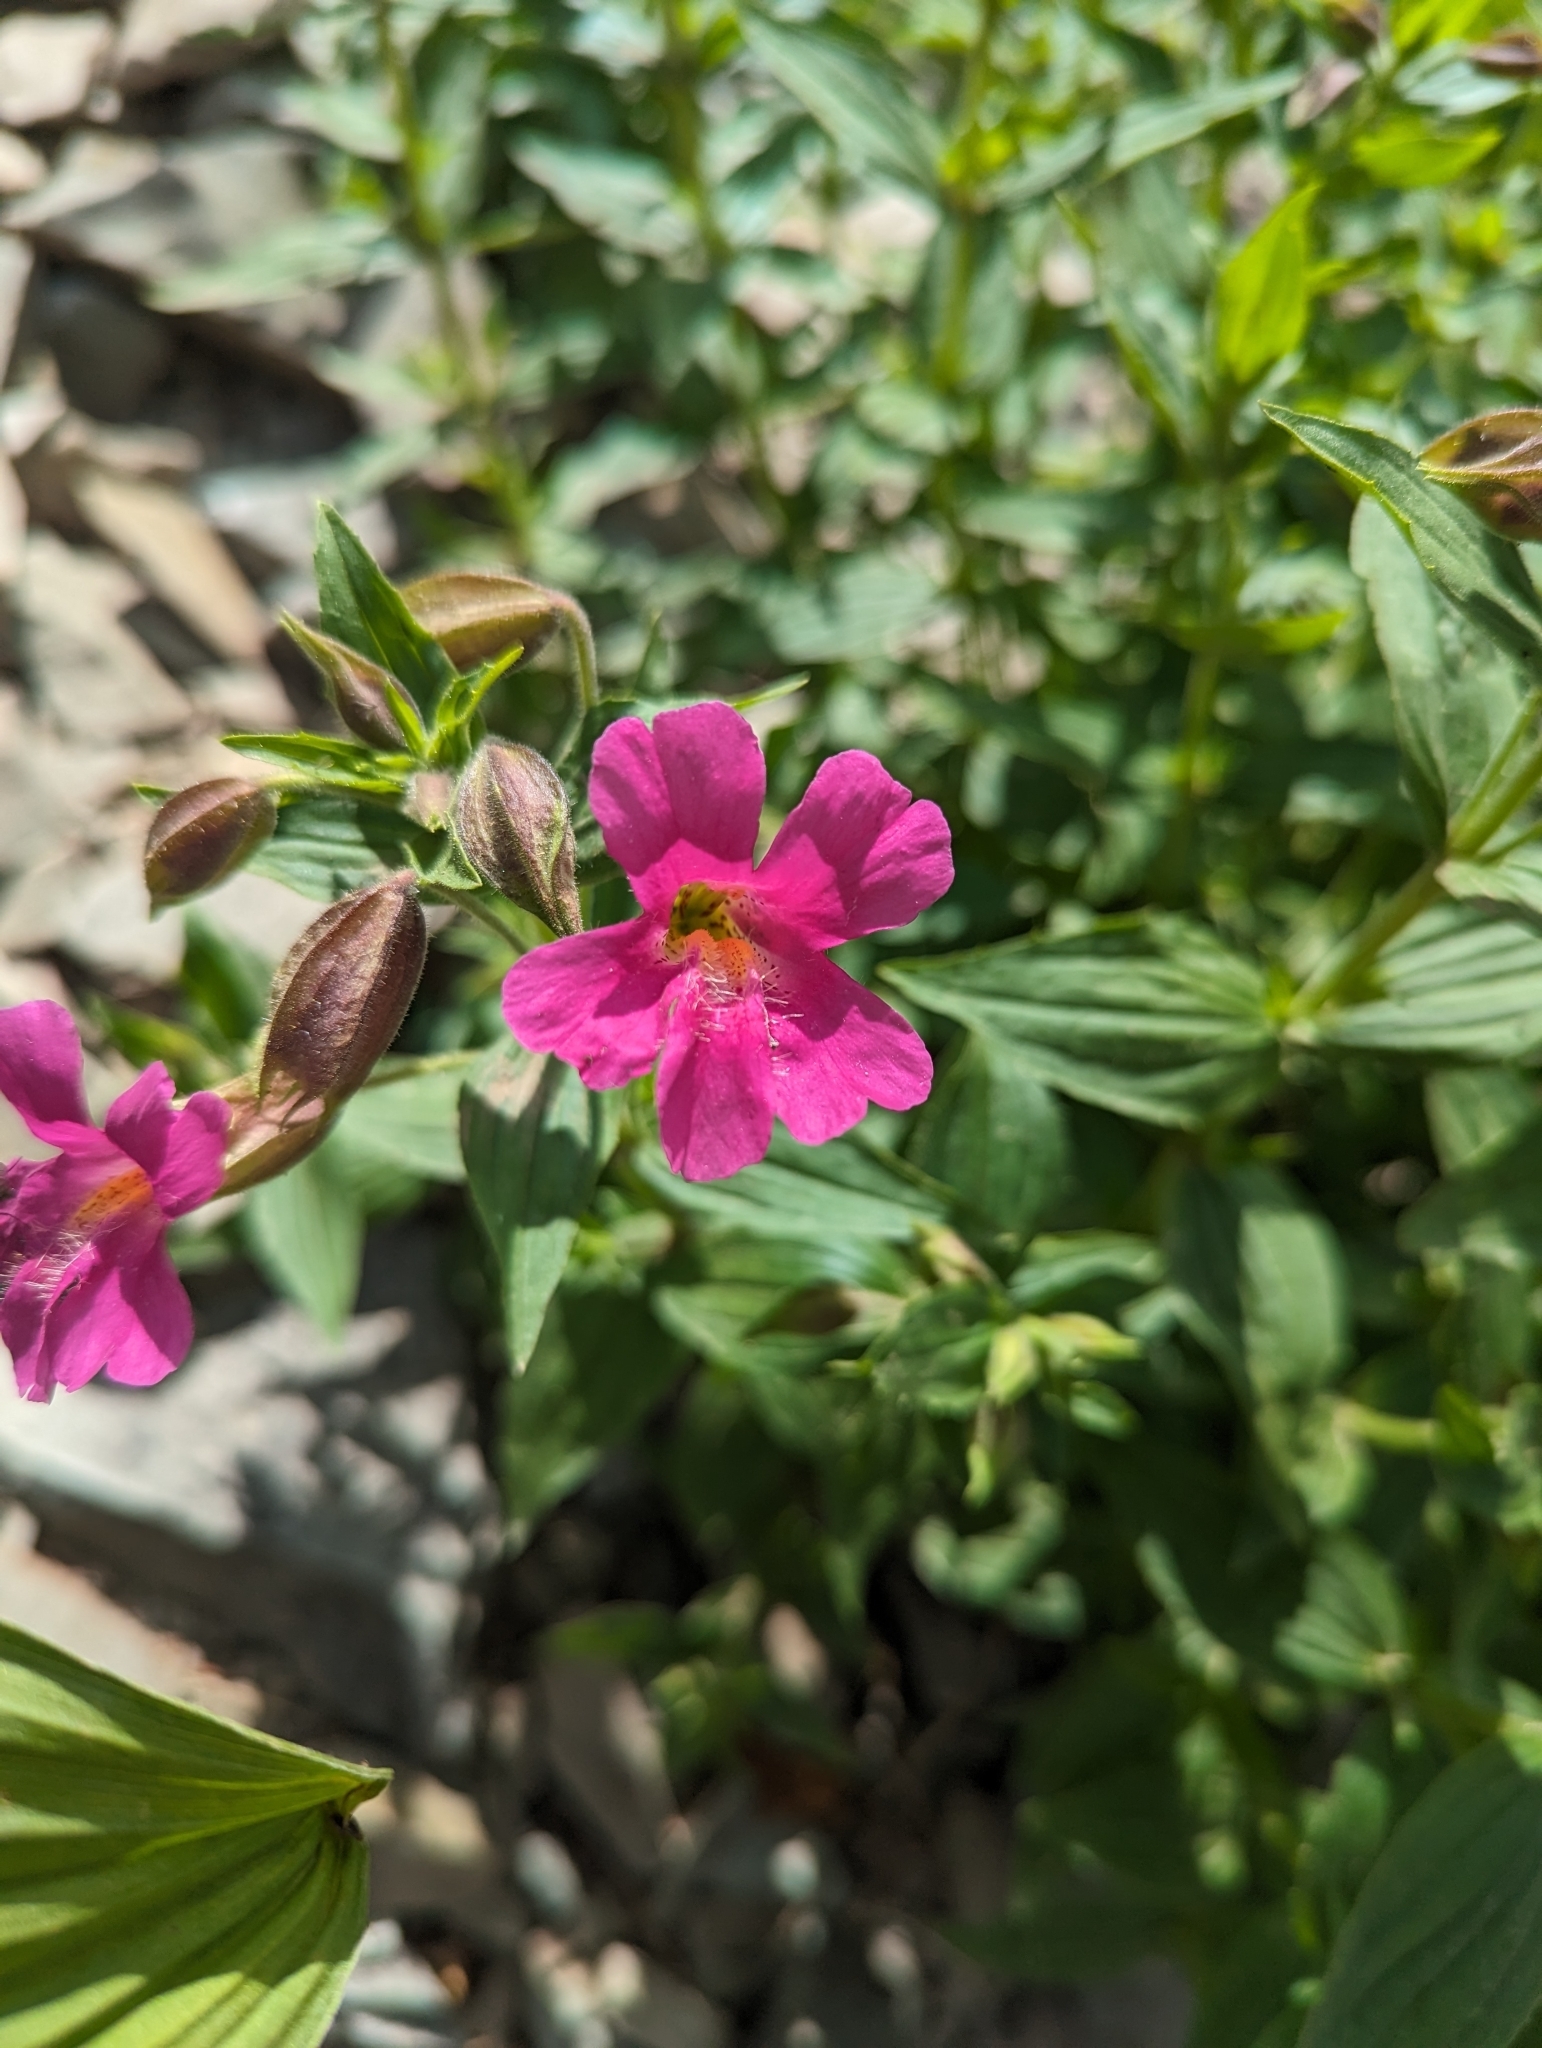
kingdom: Plantae
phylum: Tracheophyta
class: Magnoliopsida
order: Lamiales
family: Phrymaceae
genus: Erythranthe
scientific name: Erythranthe lewisii
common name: Lewis's monkey-flower
